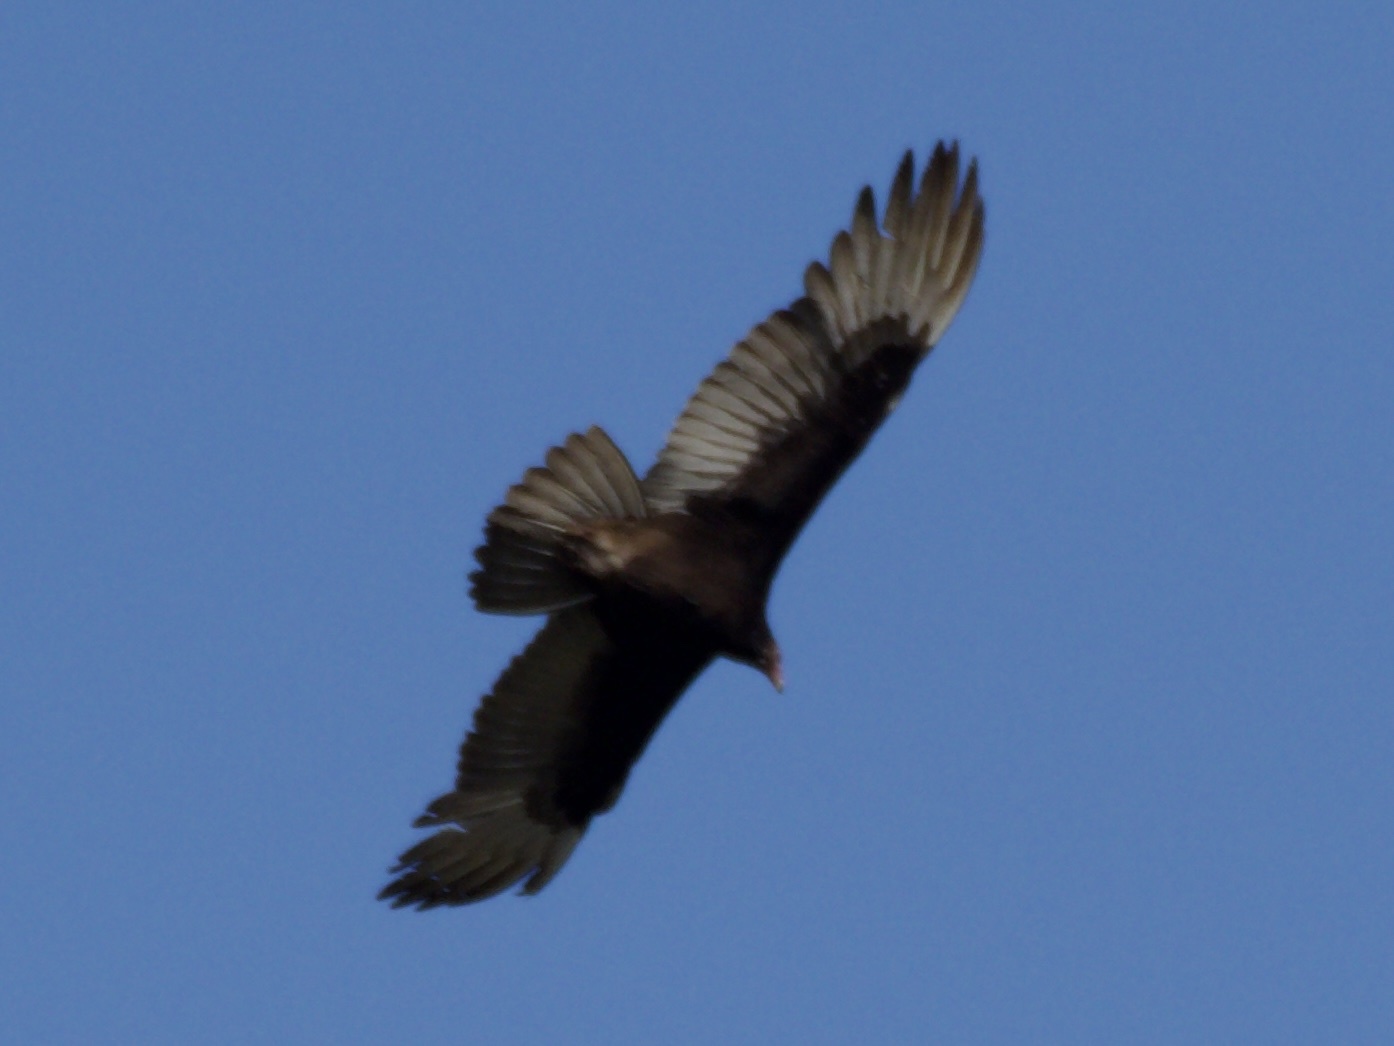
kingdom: Animalia
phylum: Chordata
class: Aves
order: Accipitriformes
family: Cathartidae
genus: Cathartes
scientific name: Cathartes aura
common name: Turkey vulture
